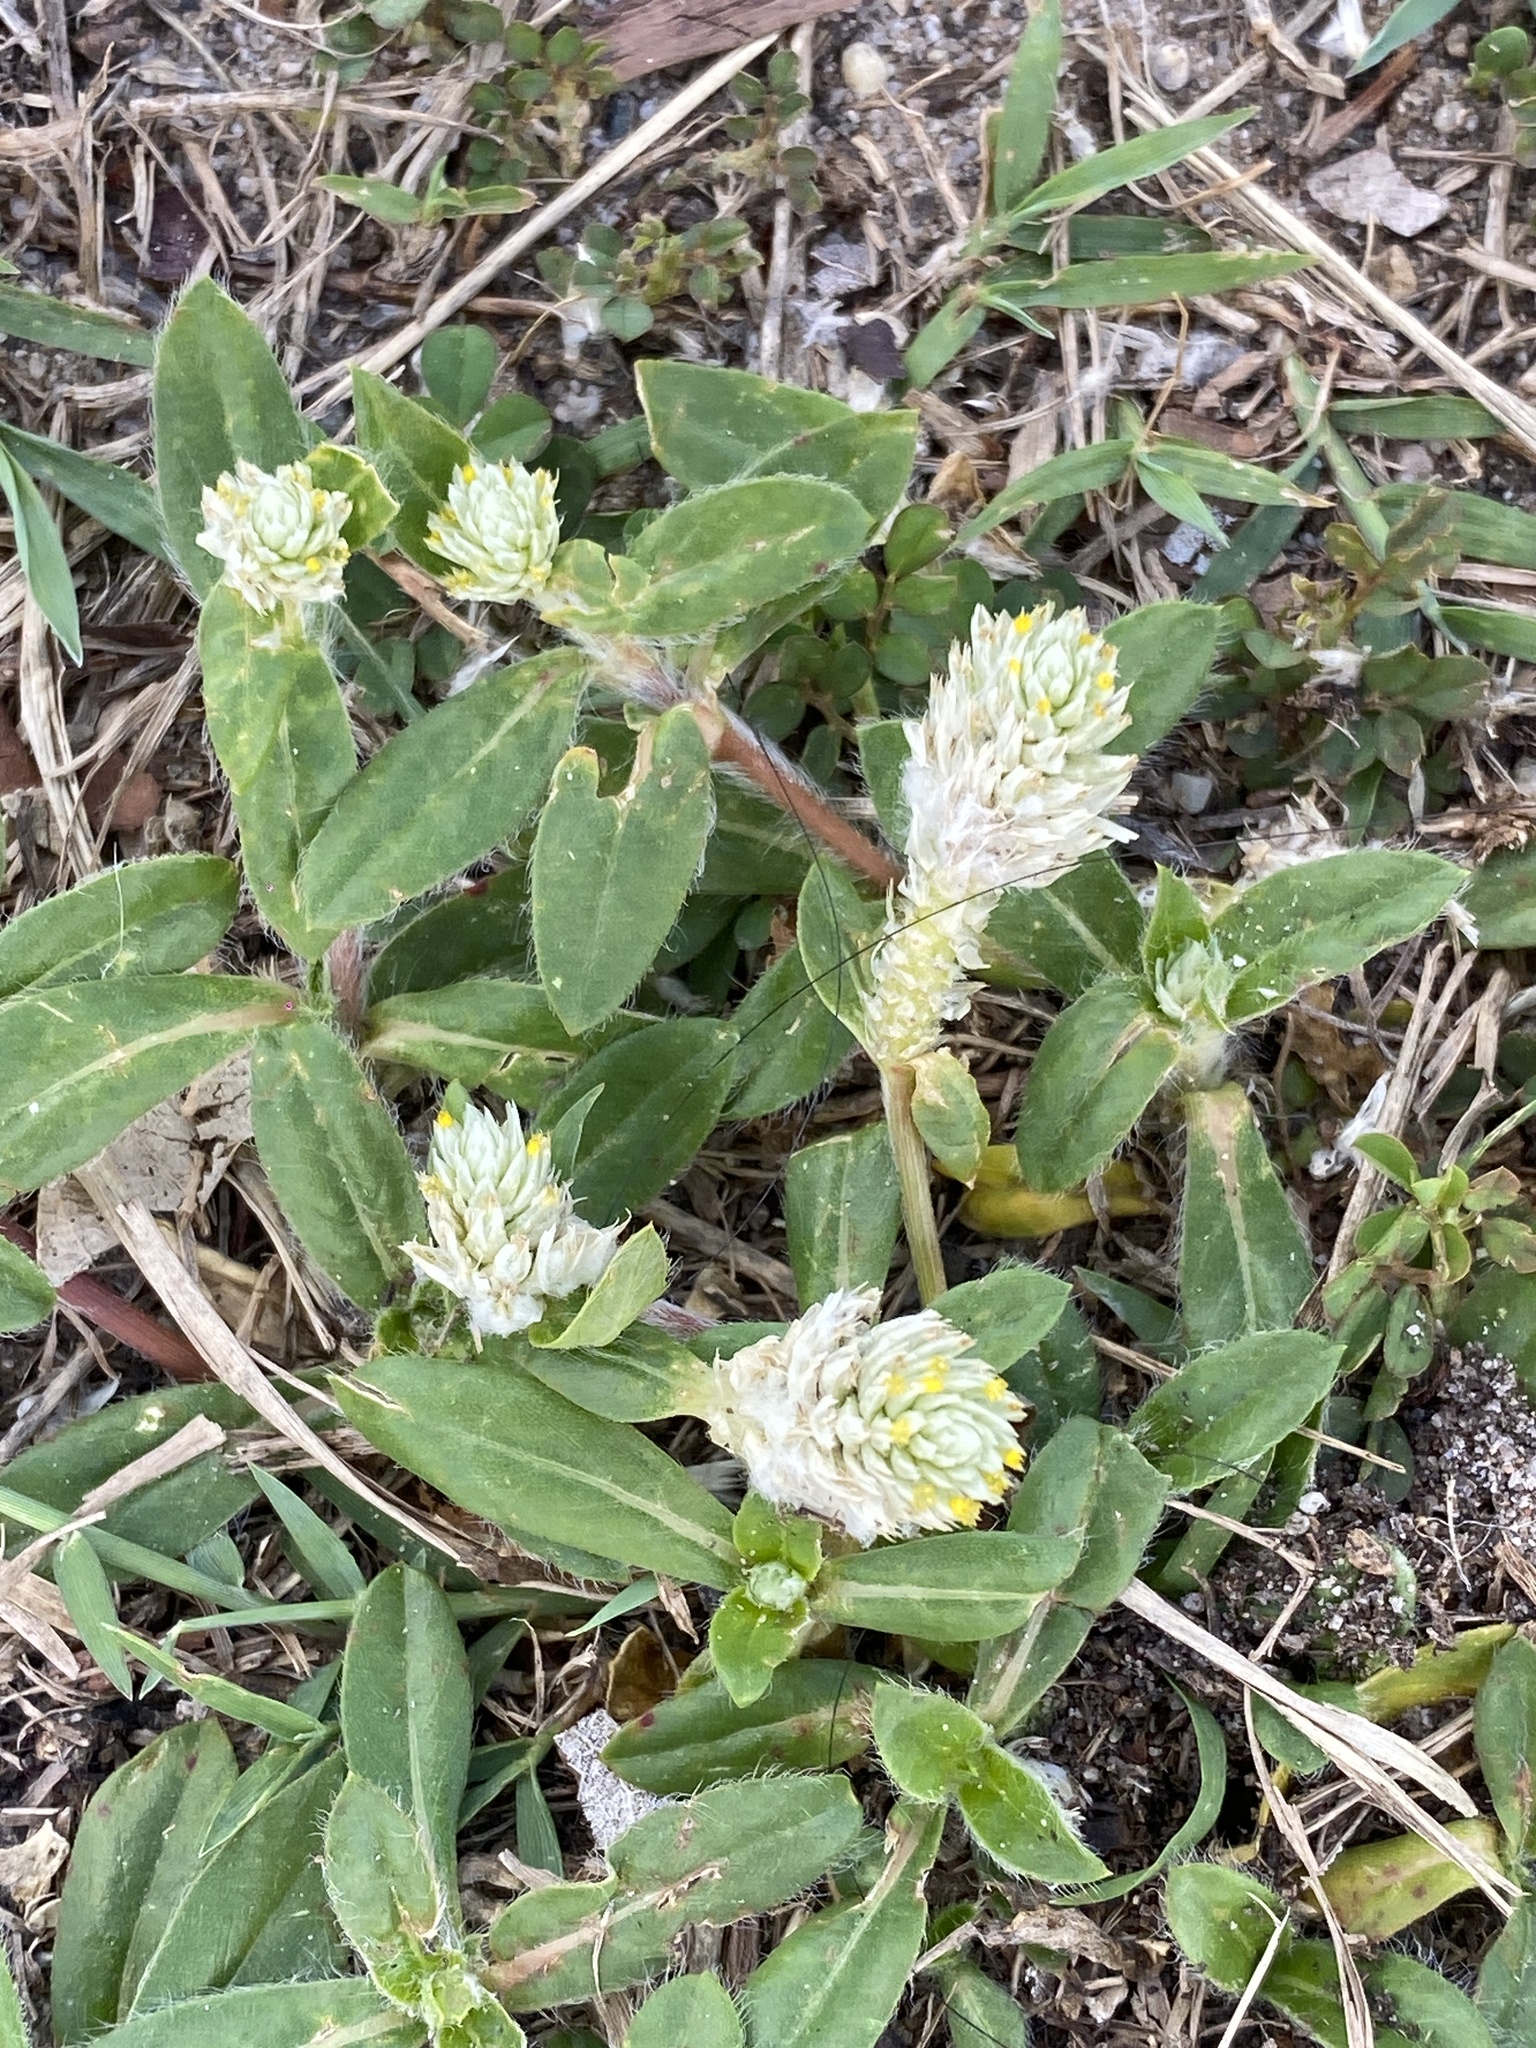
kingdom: Plantae
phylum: Tracheophyta
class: Magnoliopsida
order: Caryophyllales
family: Amaranthaceae
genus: Gomphrena
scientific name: Gomphrena celosioides
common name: Gomphrena-weed
